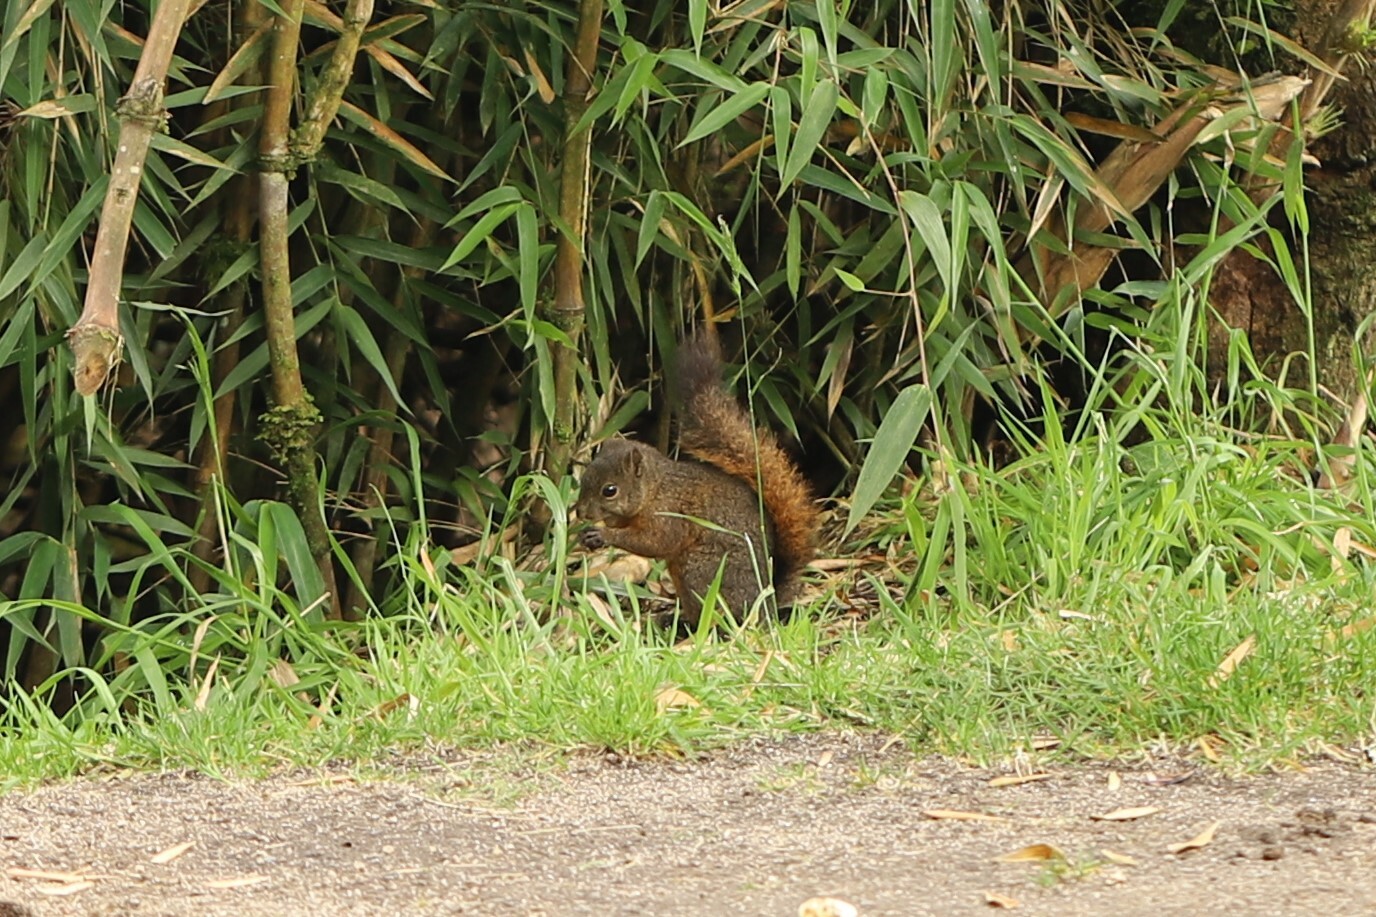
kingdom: Animalia
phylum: Chordata
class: Mammalia
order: Rodentia
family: Sciuridae
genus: Sciurus
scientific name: Sciurus granatensis
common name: Red-tailed squirrel
